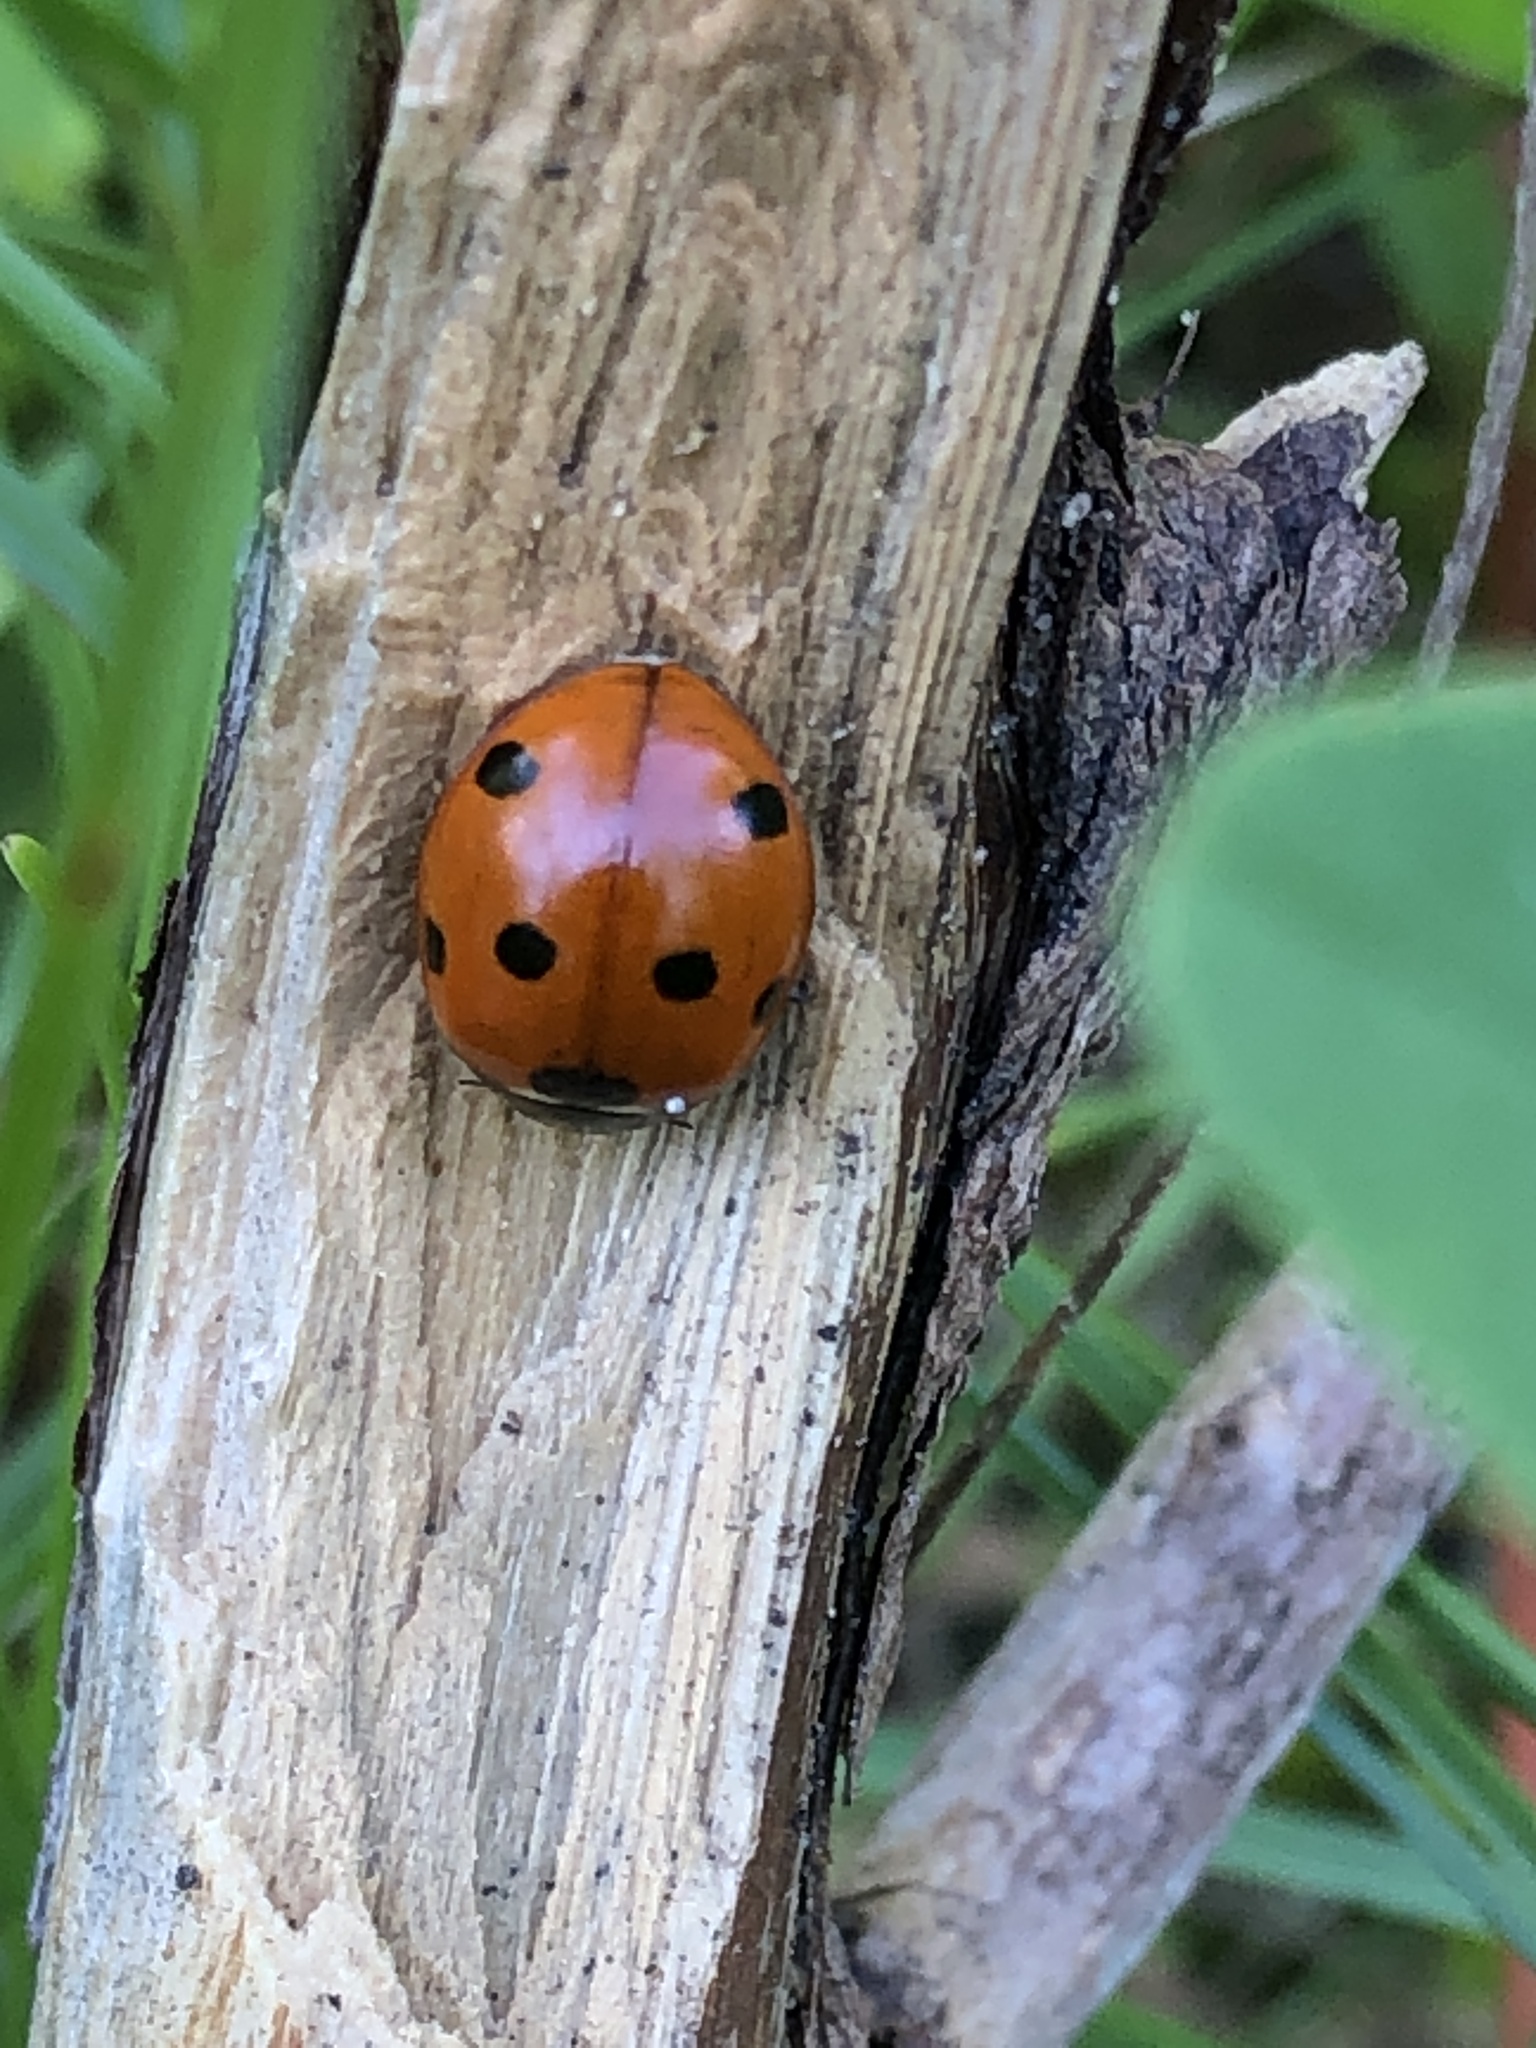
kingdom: Animalia
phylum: Arthropoda
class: Insecta
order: Coleoptera
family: Coccinellidae
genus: Coccinella
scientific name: Coccinella septempunctata
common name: Sevenspotted lady beetle
